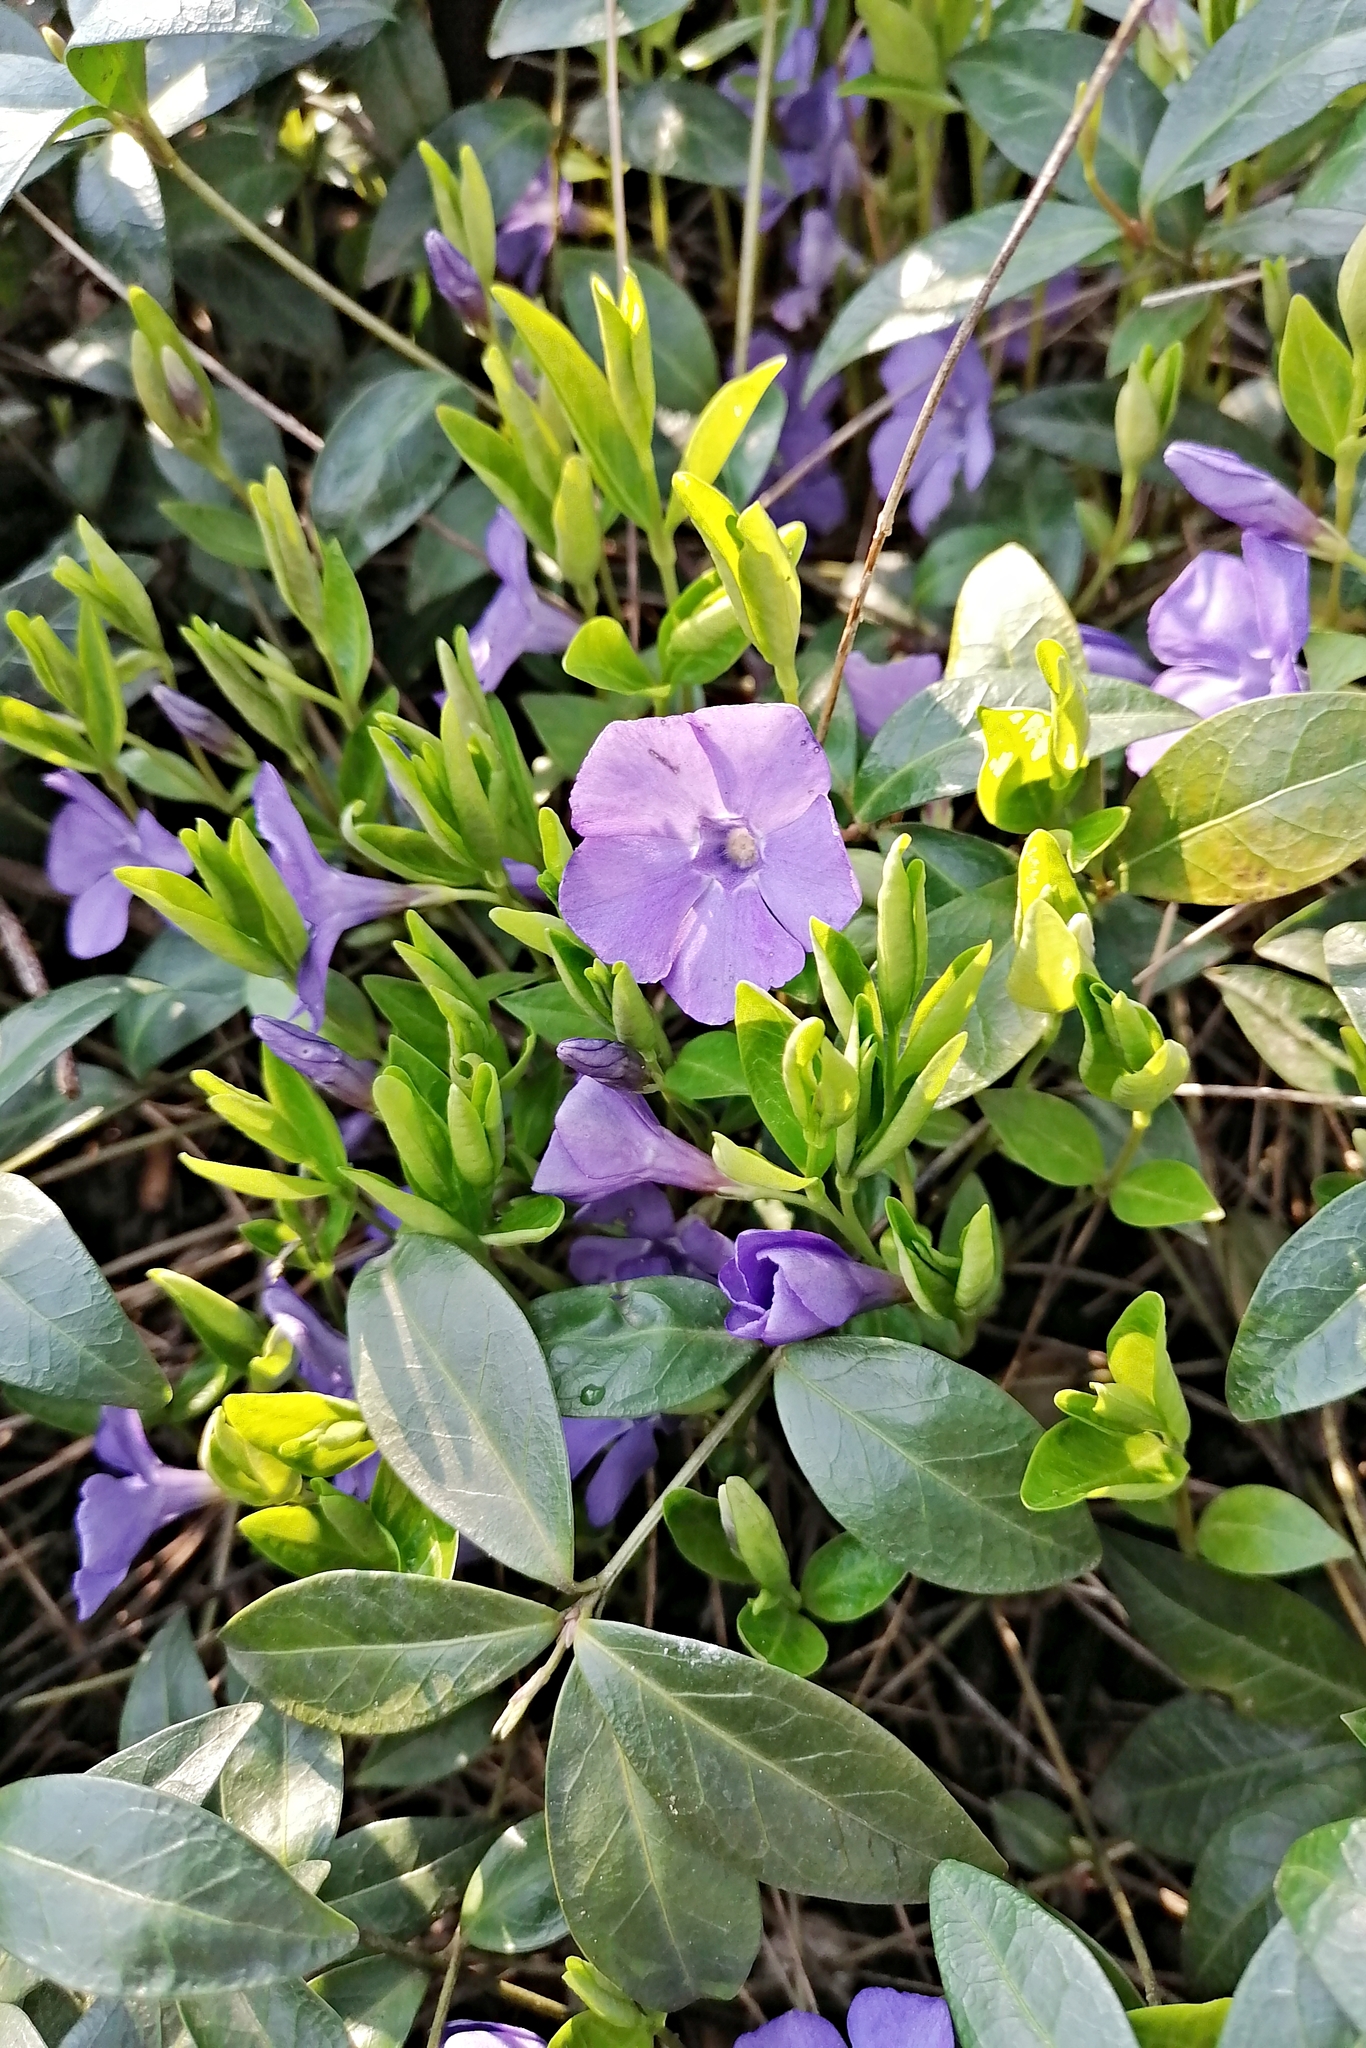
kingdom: Plantae
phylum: Tracheophyta
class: Magnoliopsida
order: Gentianales
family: Apocynaceae
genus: Vinca
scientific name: Vinca minor
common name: Lesser periwinkle
